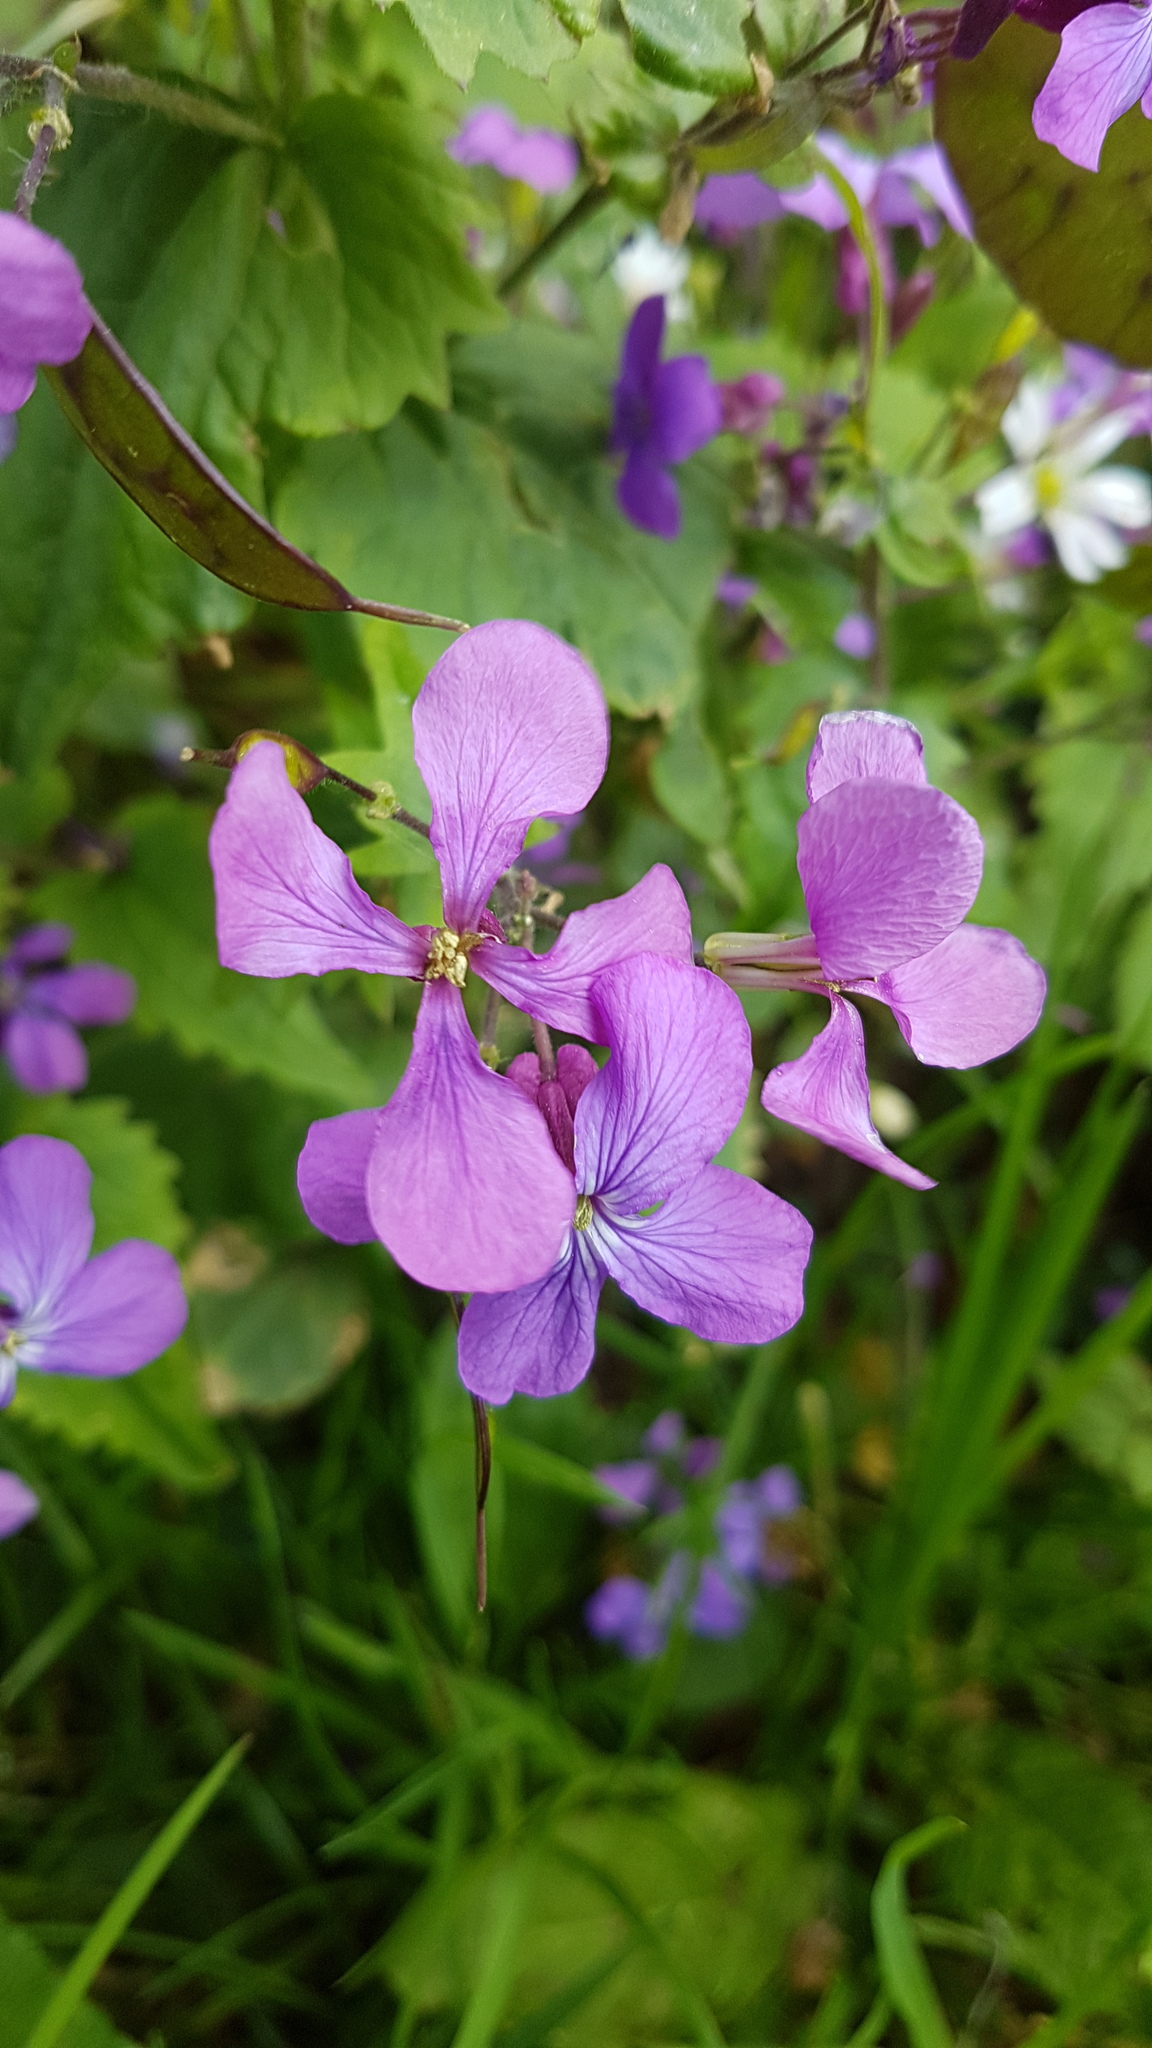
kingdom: Plantae
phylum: Tracheophyta
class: Magnoliopsida
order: Brassicales
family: Brassicaceae
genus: Lunaria
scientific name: Lunaria annua
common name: Honesty
